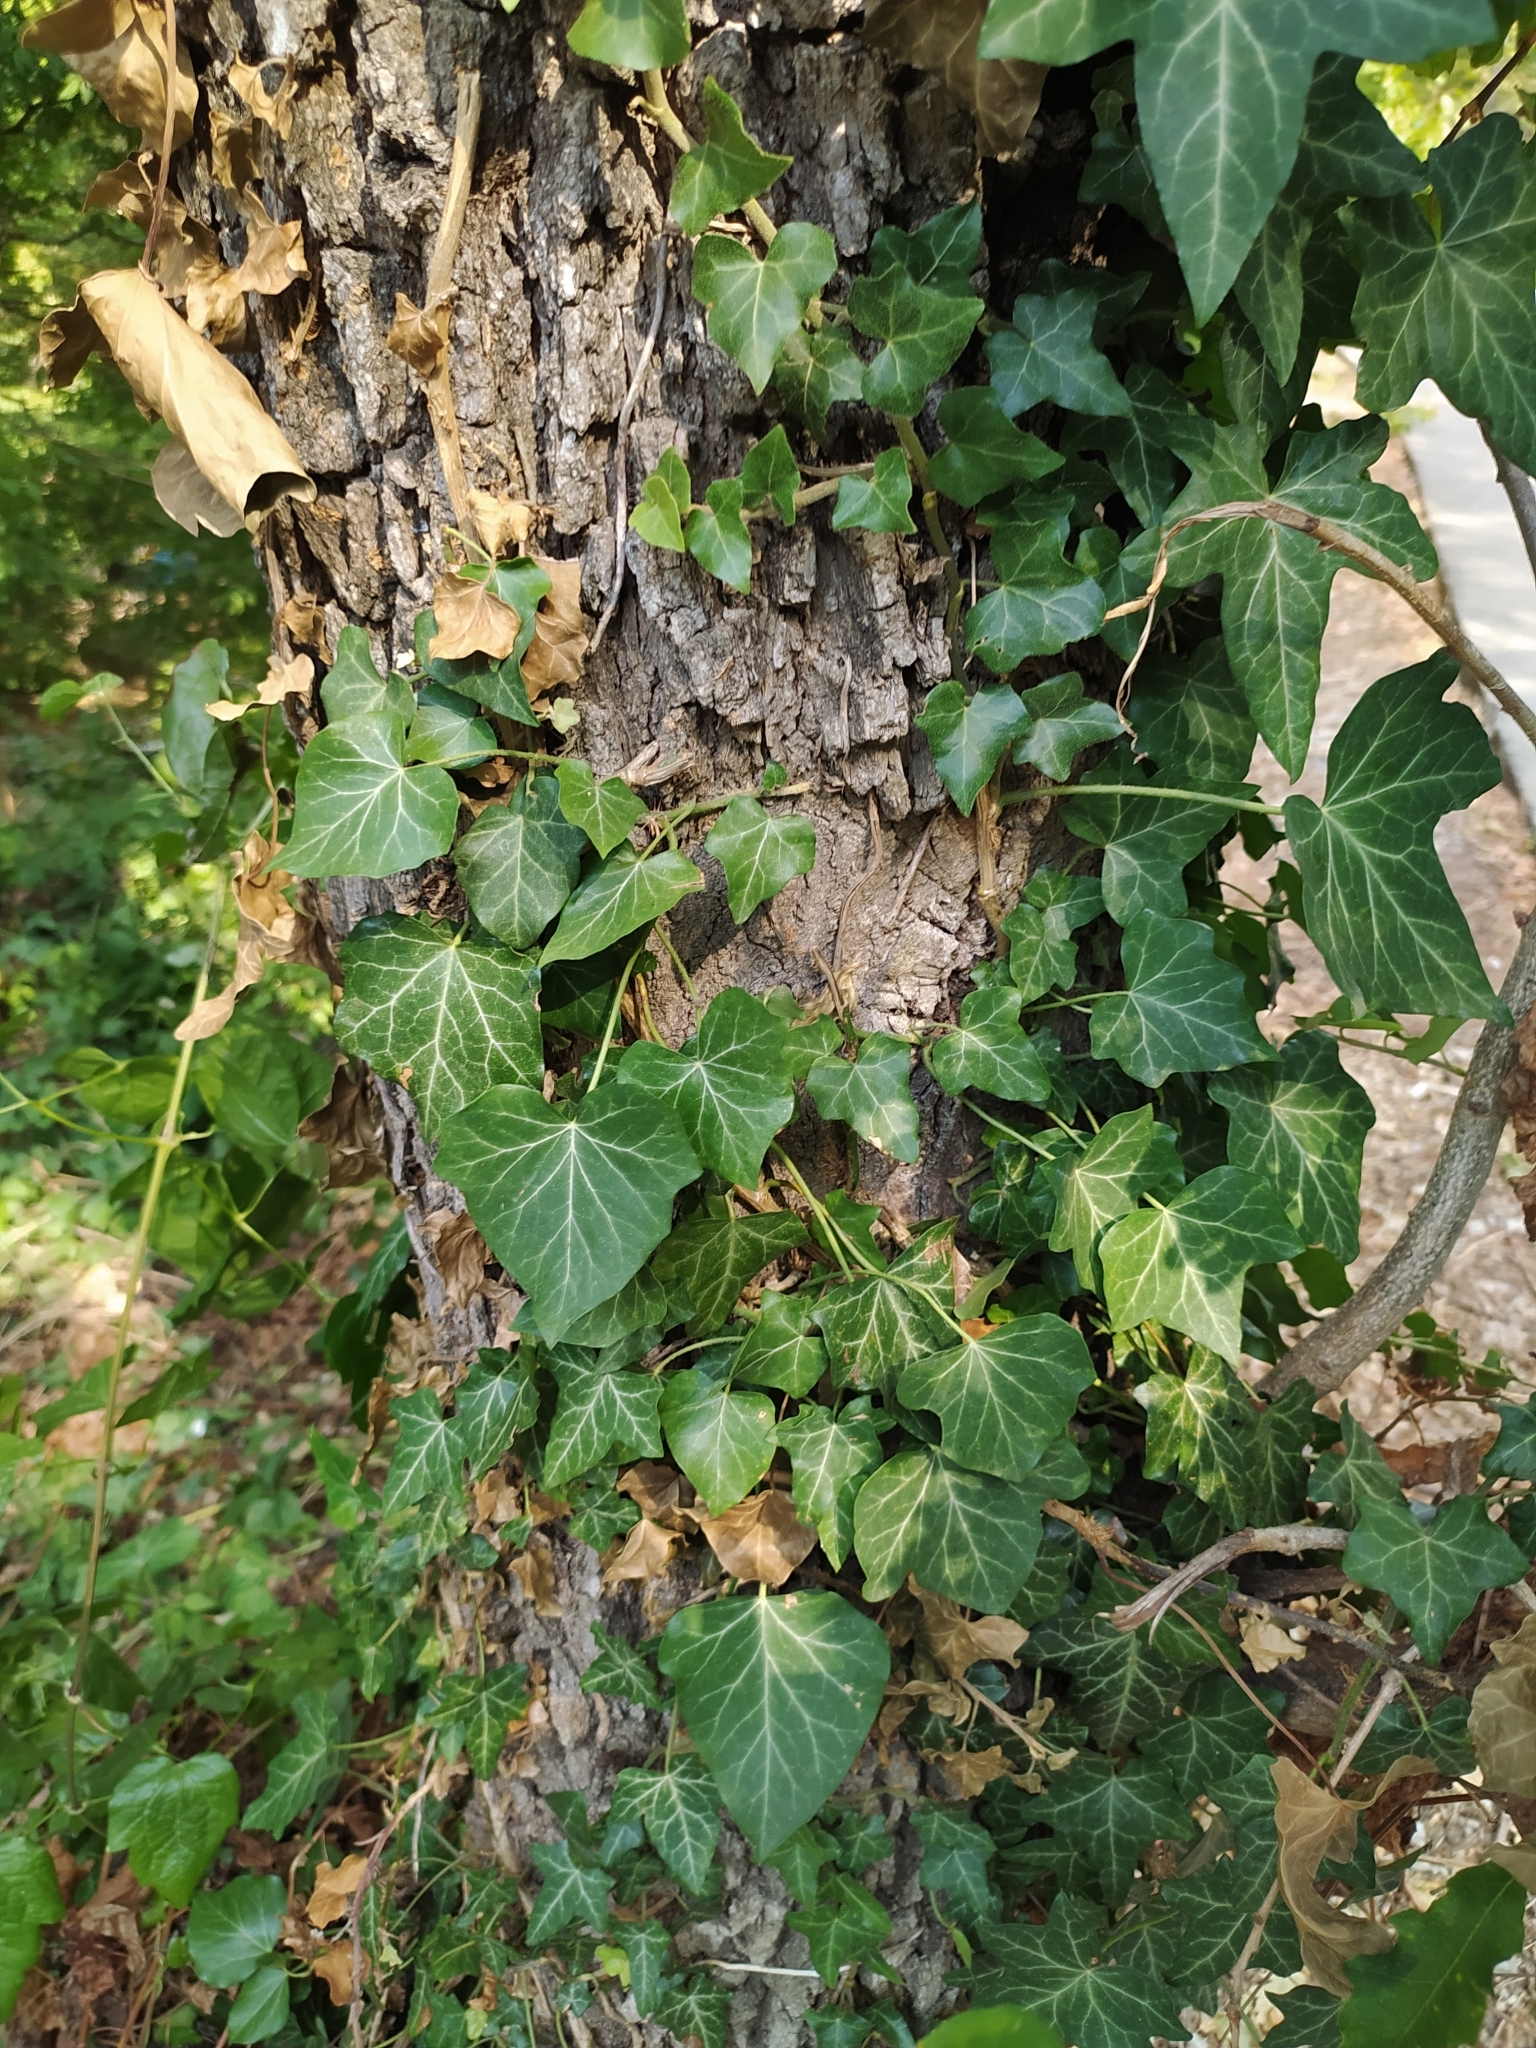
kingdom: Plantae
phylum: Tracheophyta
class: Magnoliopsida
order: Apiales
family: Araliaceae
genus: Hedera
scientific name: Hedera helix
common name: Ivy
